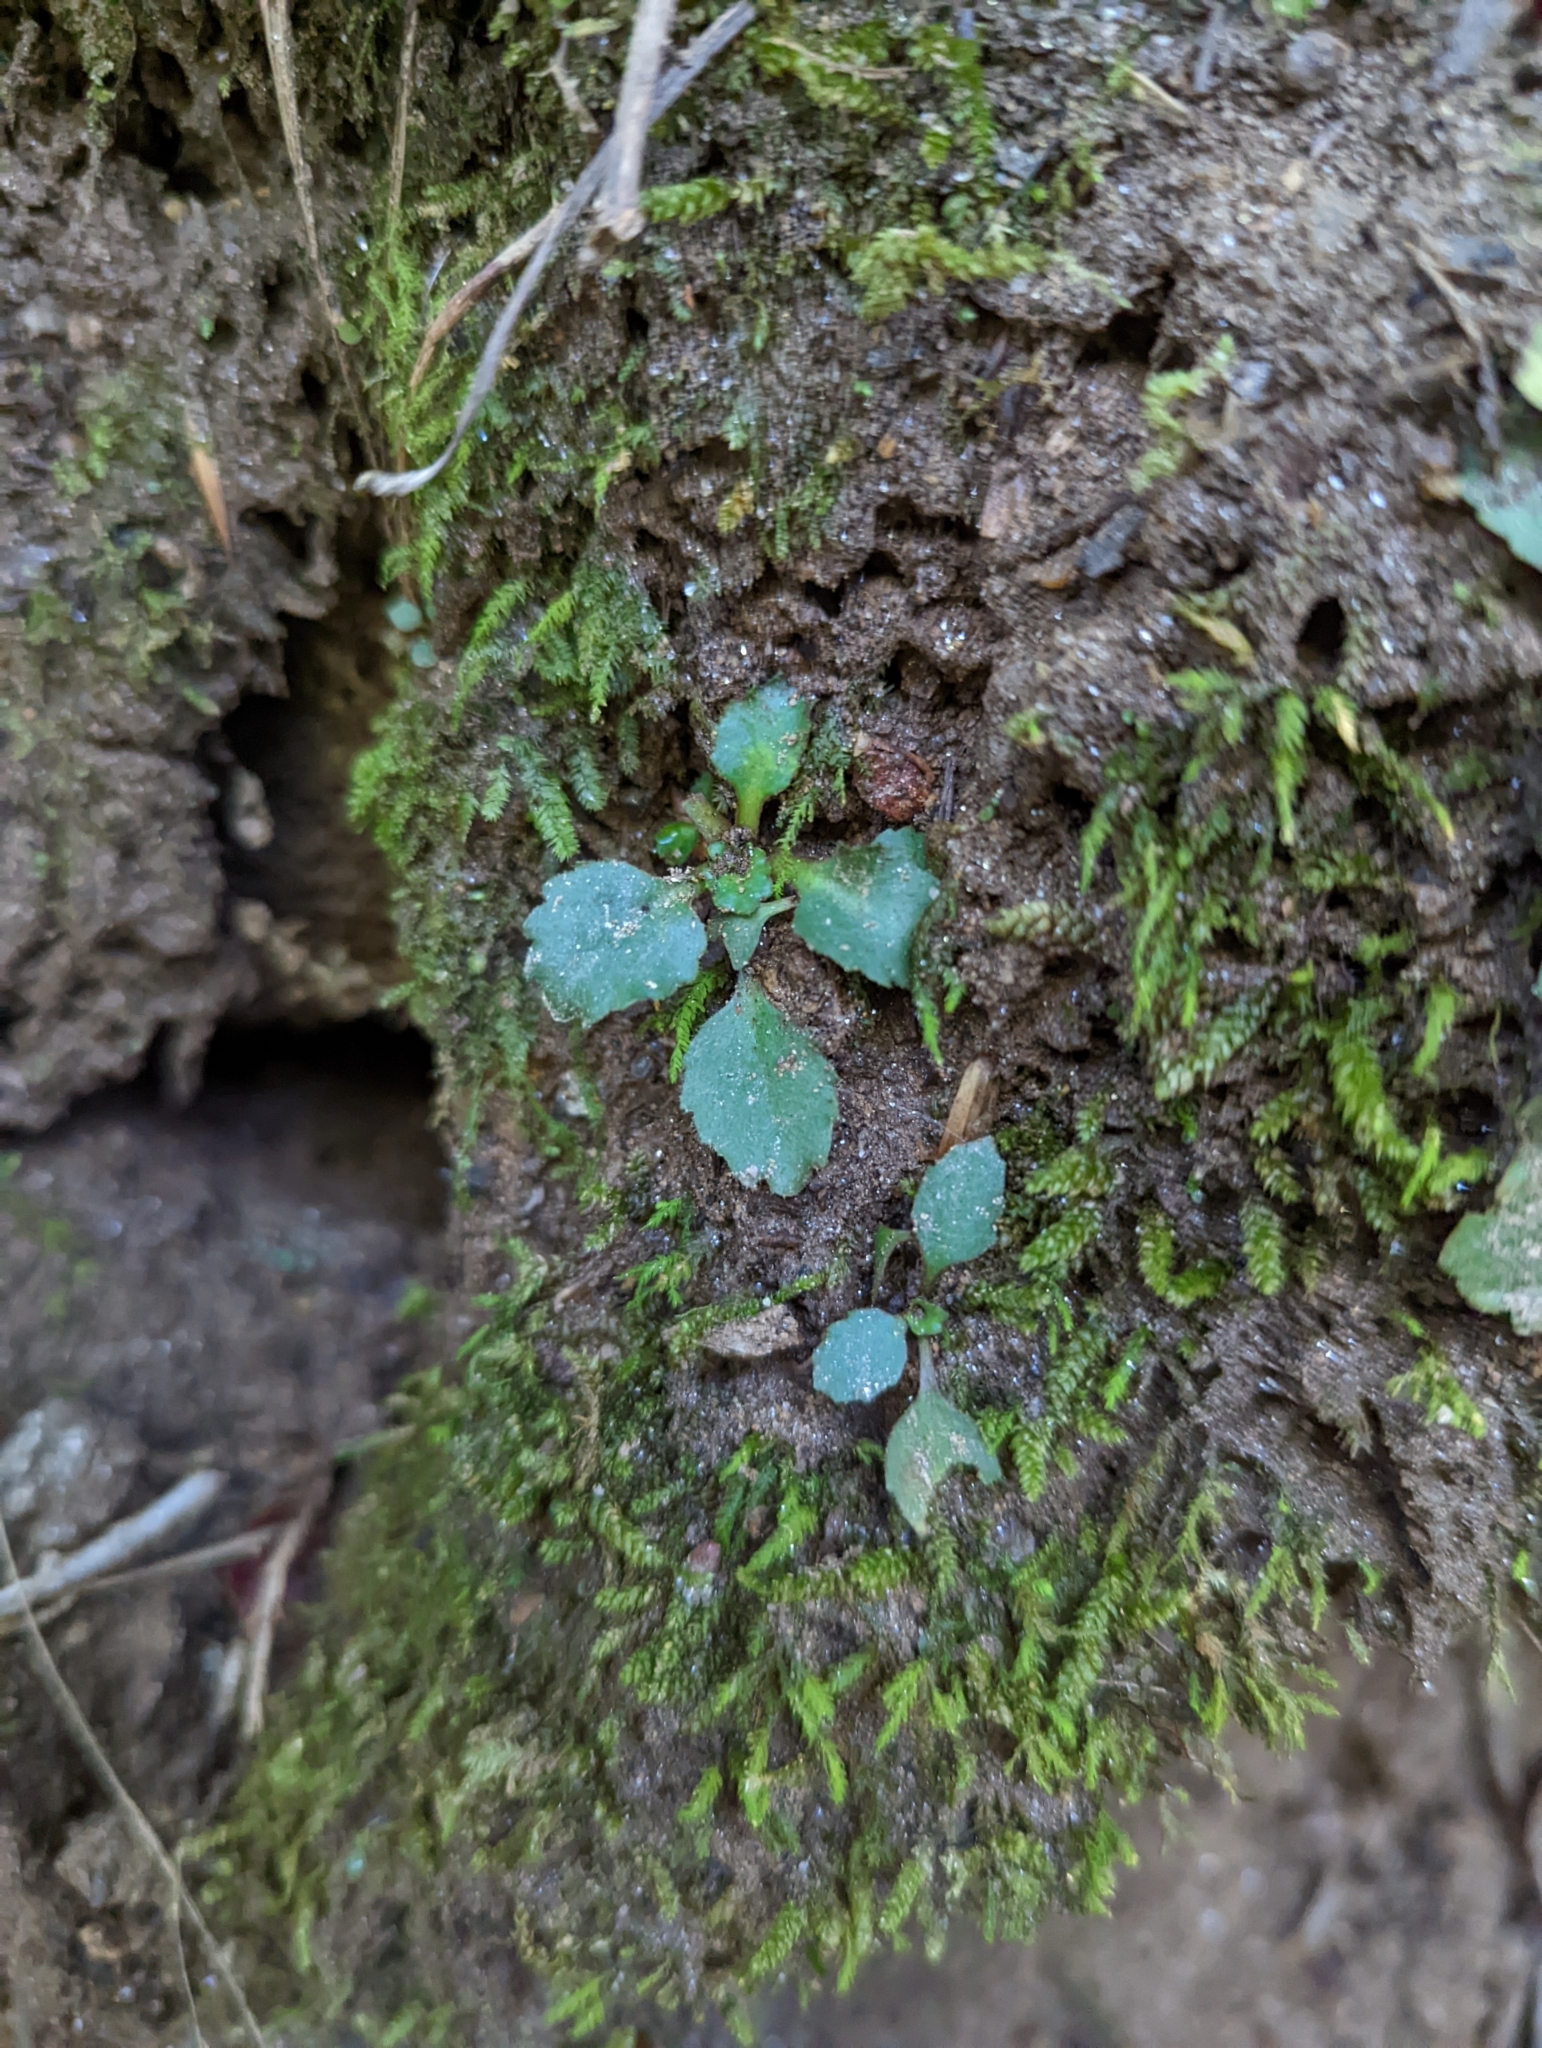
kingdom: Plantae
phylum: Tracheophyta
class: Magnoliopsida
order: Saxifragales
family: Saxifragaceae
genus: Micranthes
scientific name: Micranthes virginiensis
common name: Early saxifrage
